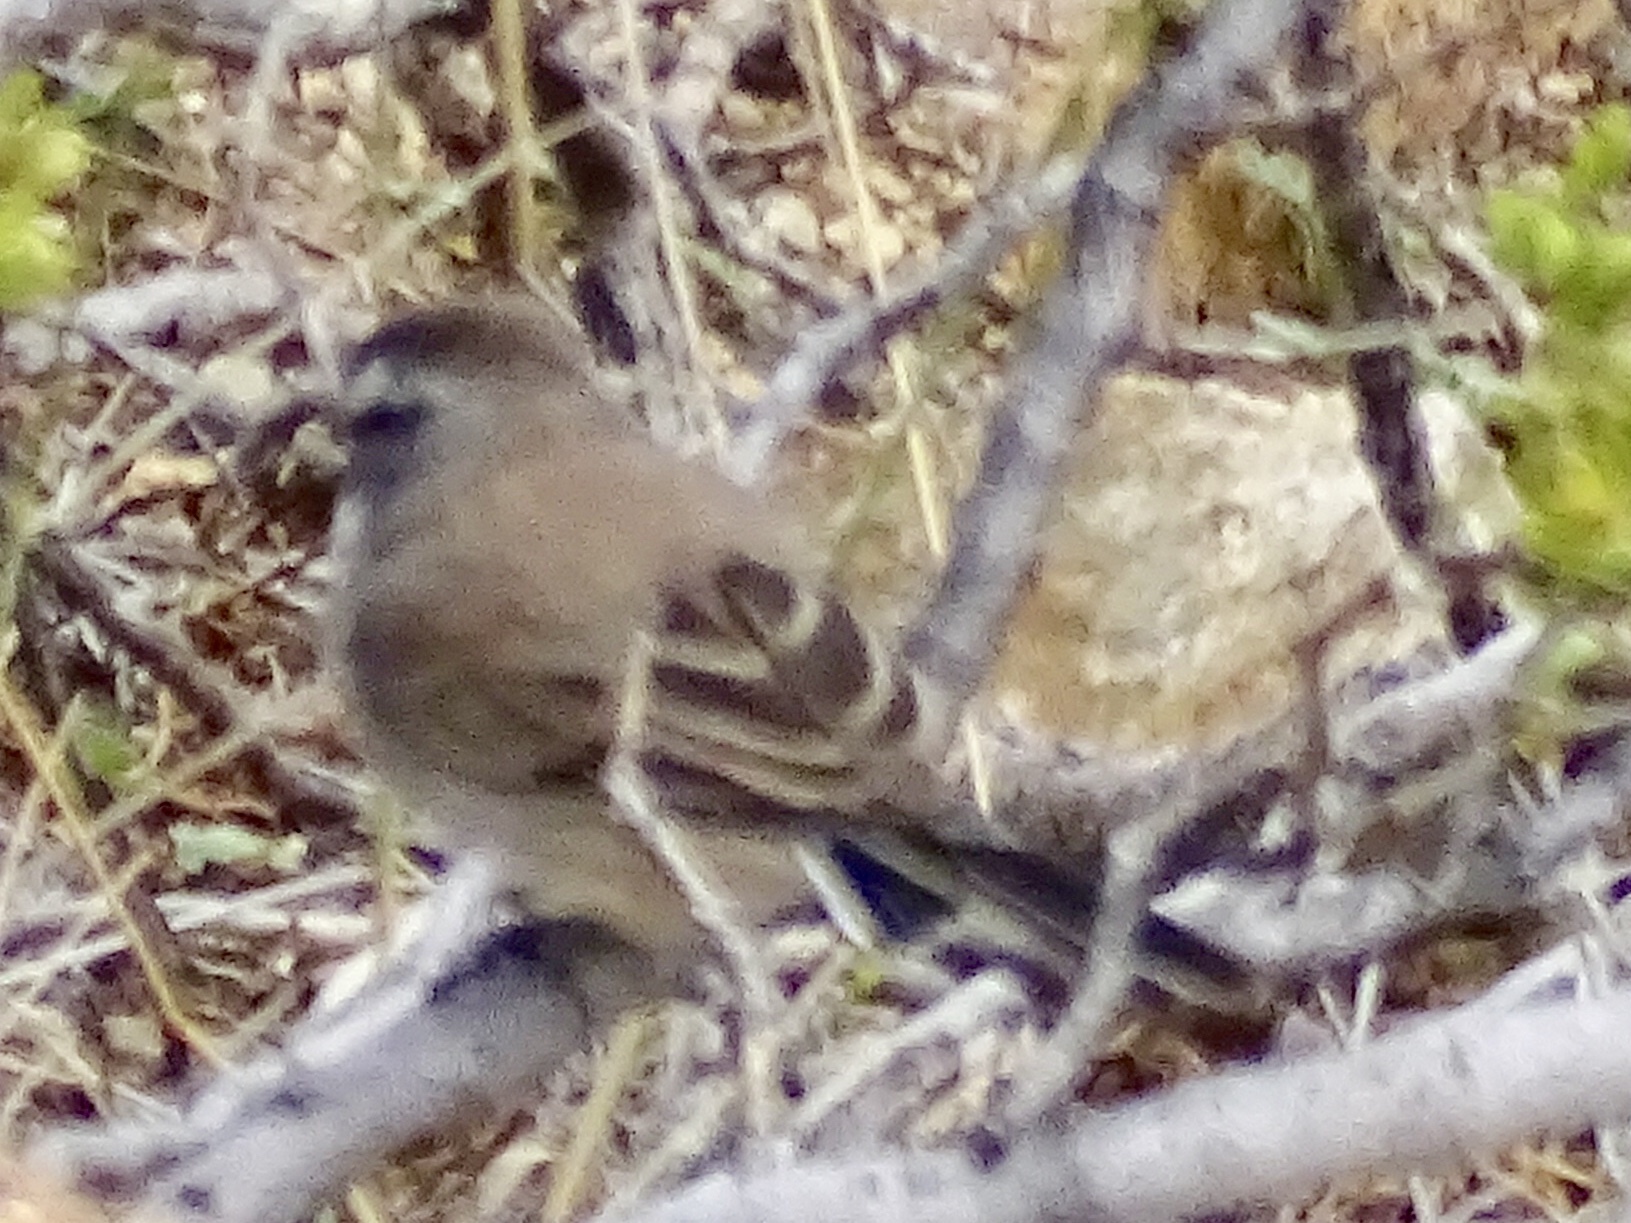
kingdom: Animalia
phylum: Chordata
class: Aves
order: Passeriformes
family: Passerellidae
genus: Amphispiza
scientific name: Amphispiza bilineata
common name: Black-throated sparrow
